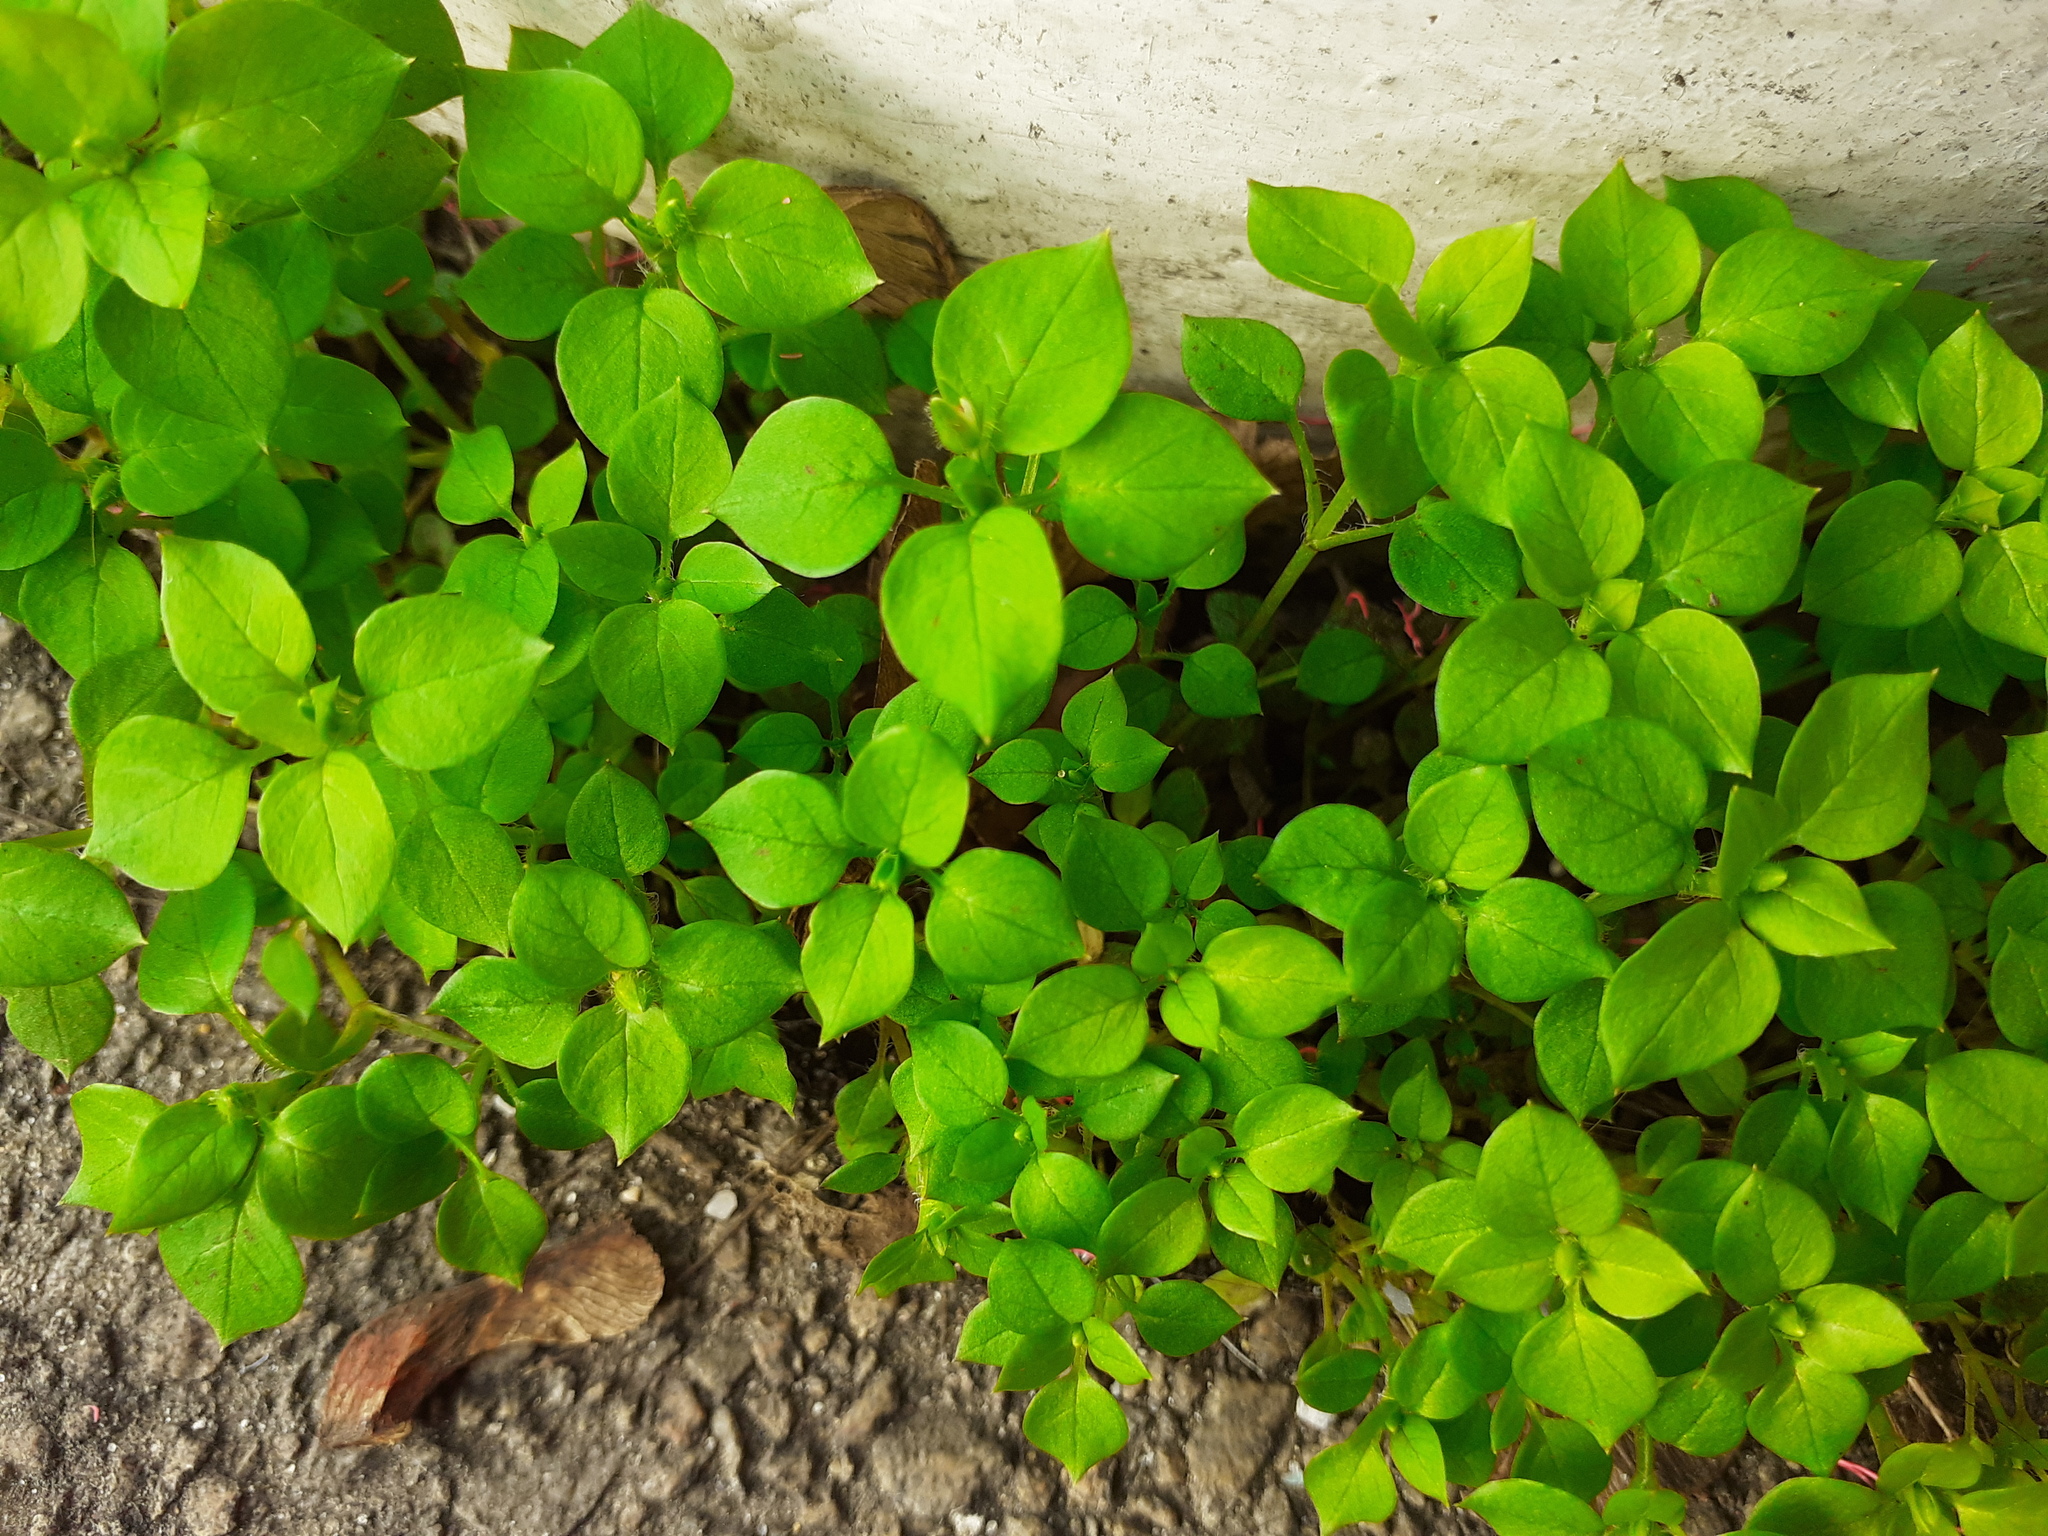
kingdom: Plantae
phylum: Tracheophyta
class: Magnoliopsida
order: Caryophyllales
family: Caryophyllaceae
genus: Stellaria
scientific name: Stellaria media
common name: Common chickweed
